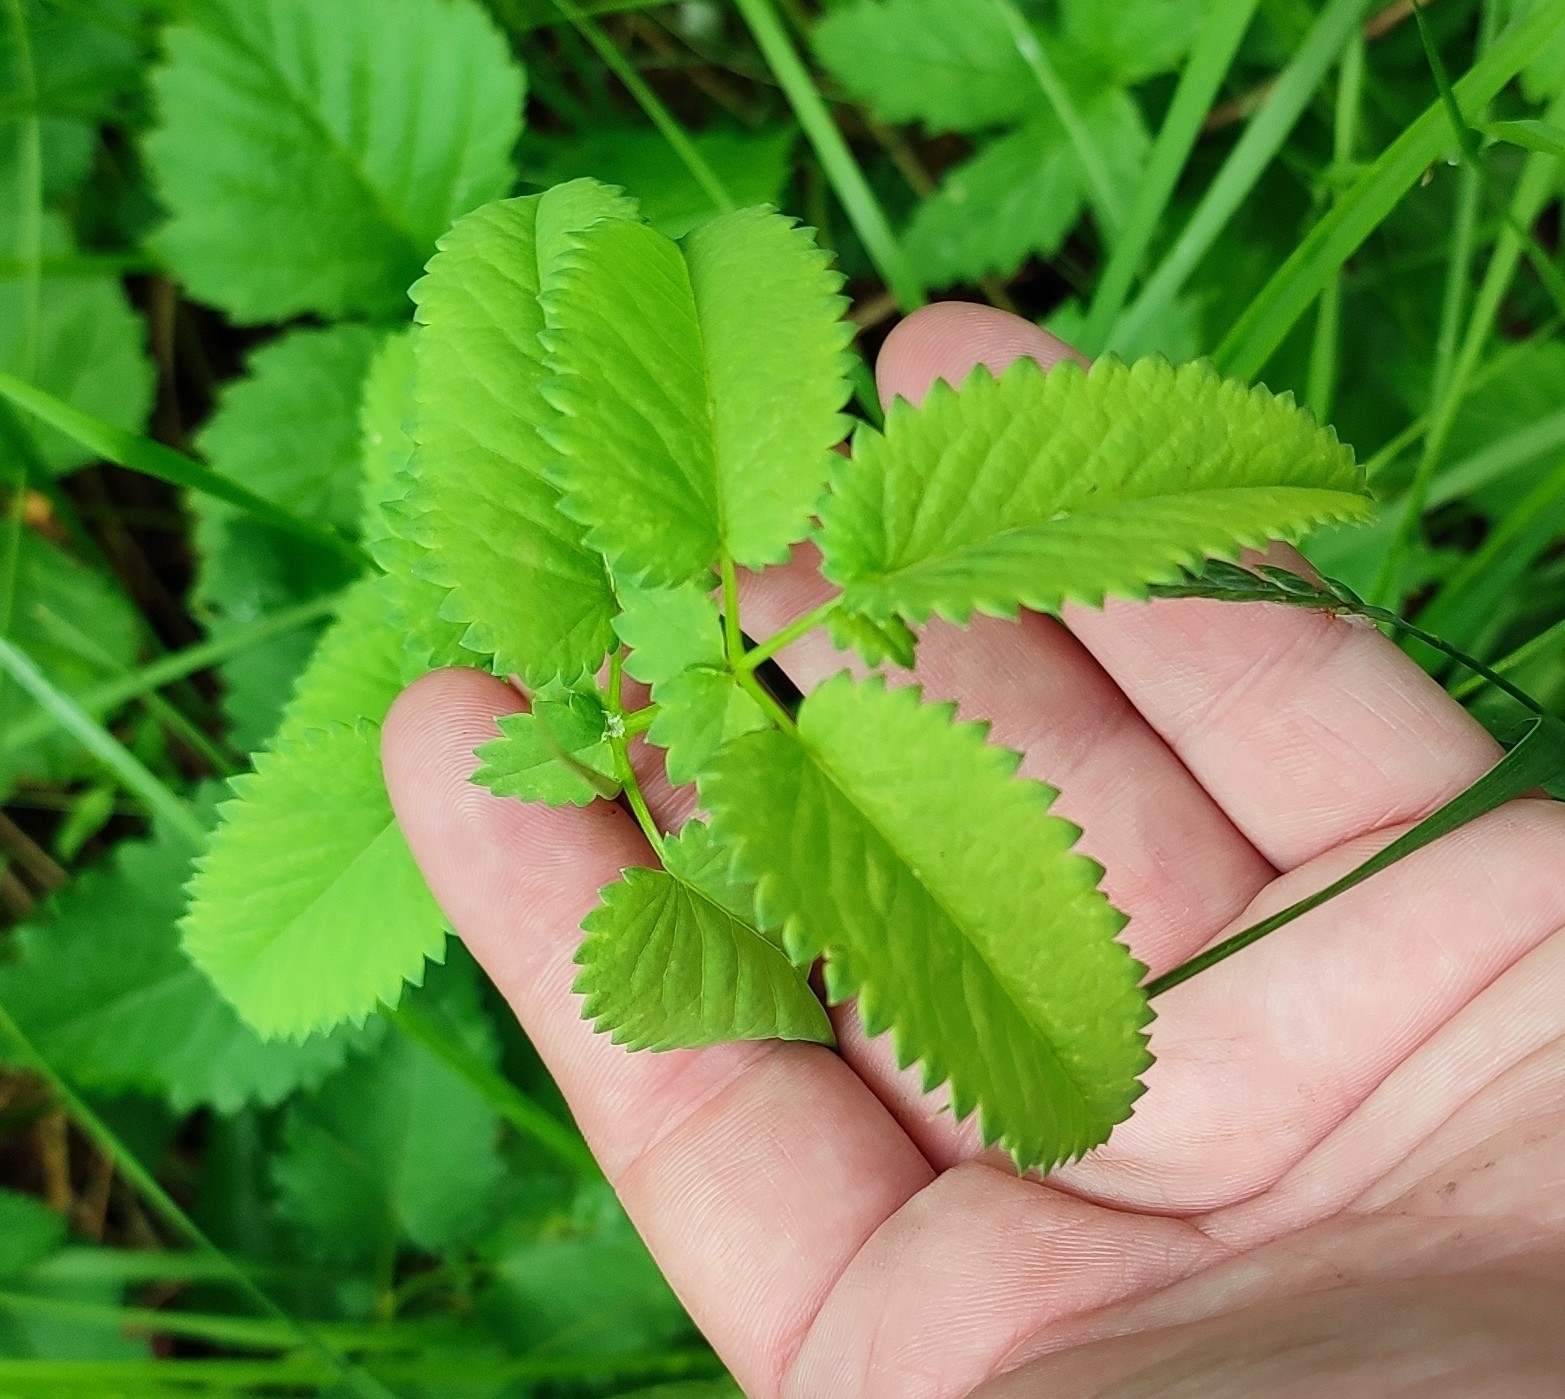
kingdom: Plantae
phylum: Tracheophyta
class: Magnoliopsida
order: Rosales
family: Rosaceae
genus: Sanguisorba
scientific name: Sanguisorba officinalis
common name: Great burnet
